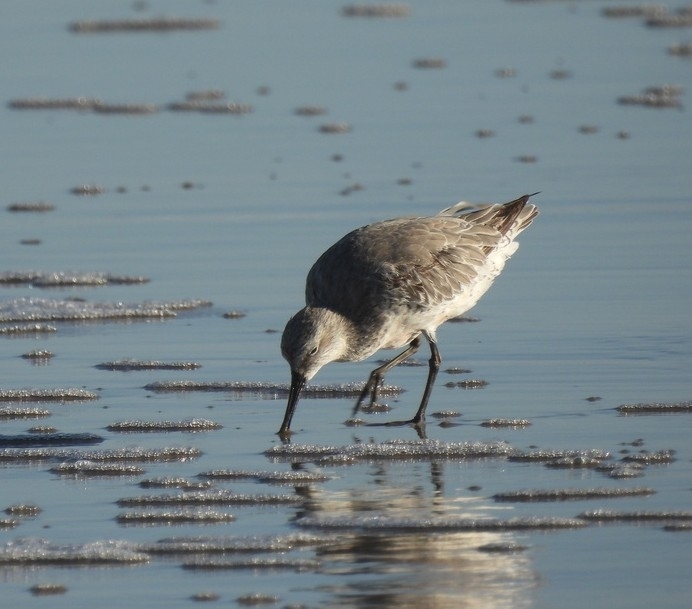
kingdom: Animalia
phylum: Chordata
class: Aves
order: Charadriiformes
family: Scolopacidae
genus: Calidris
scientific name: Calidris canutus
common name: Red knot
